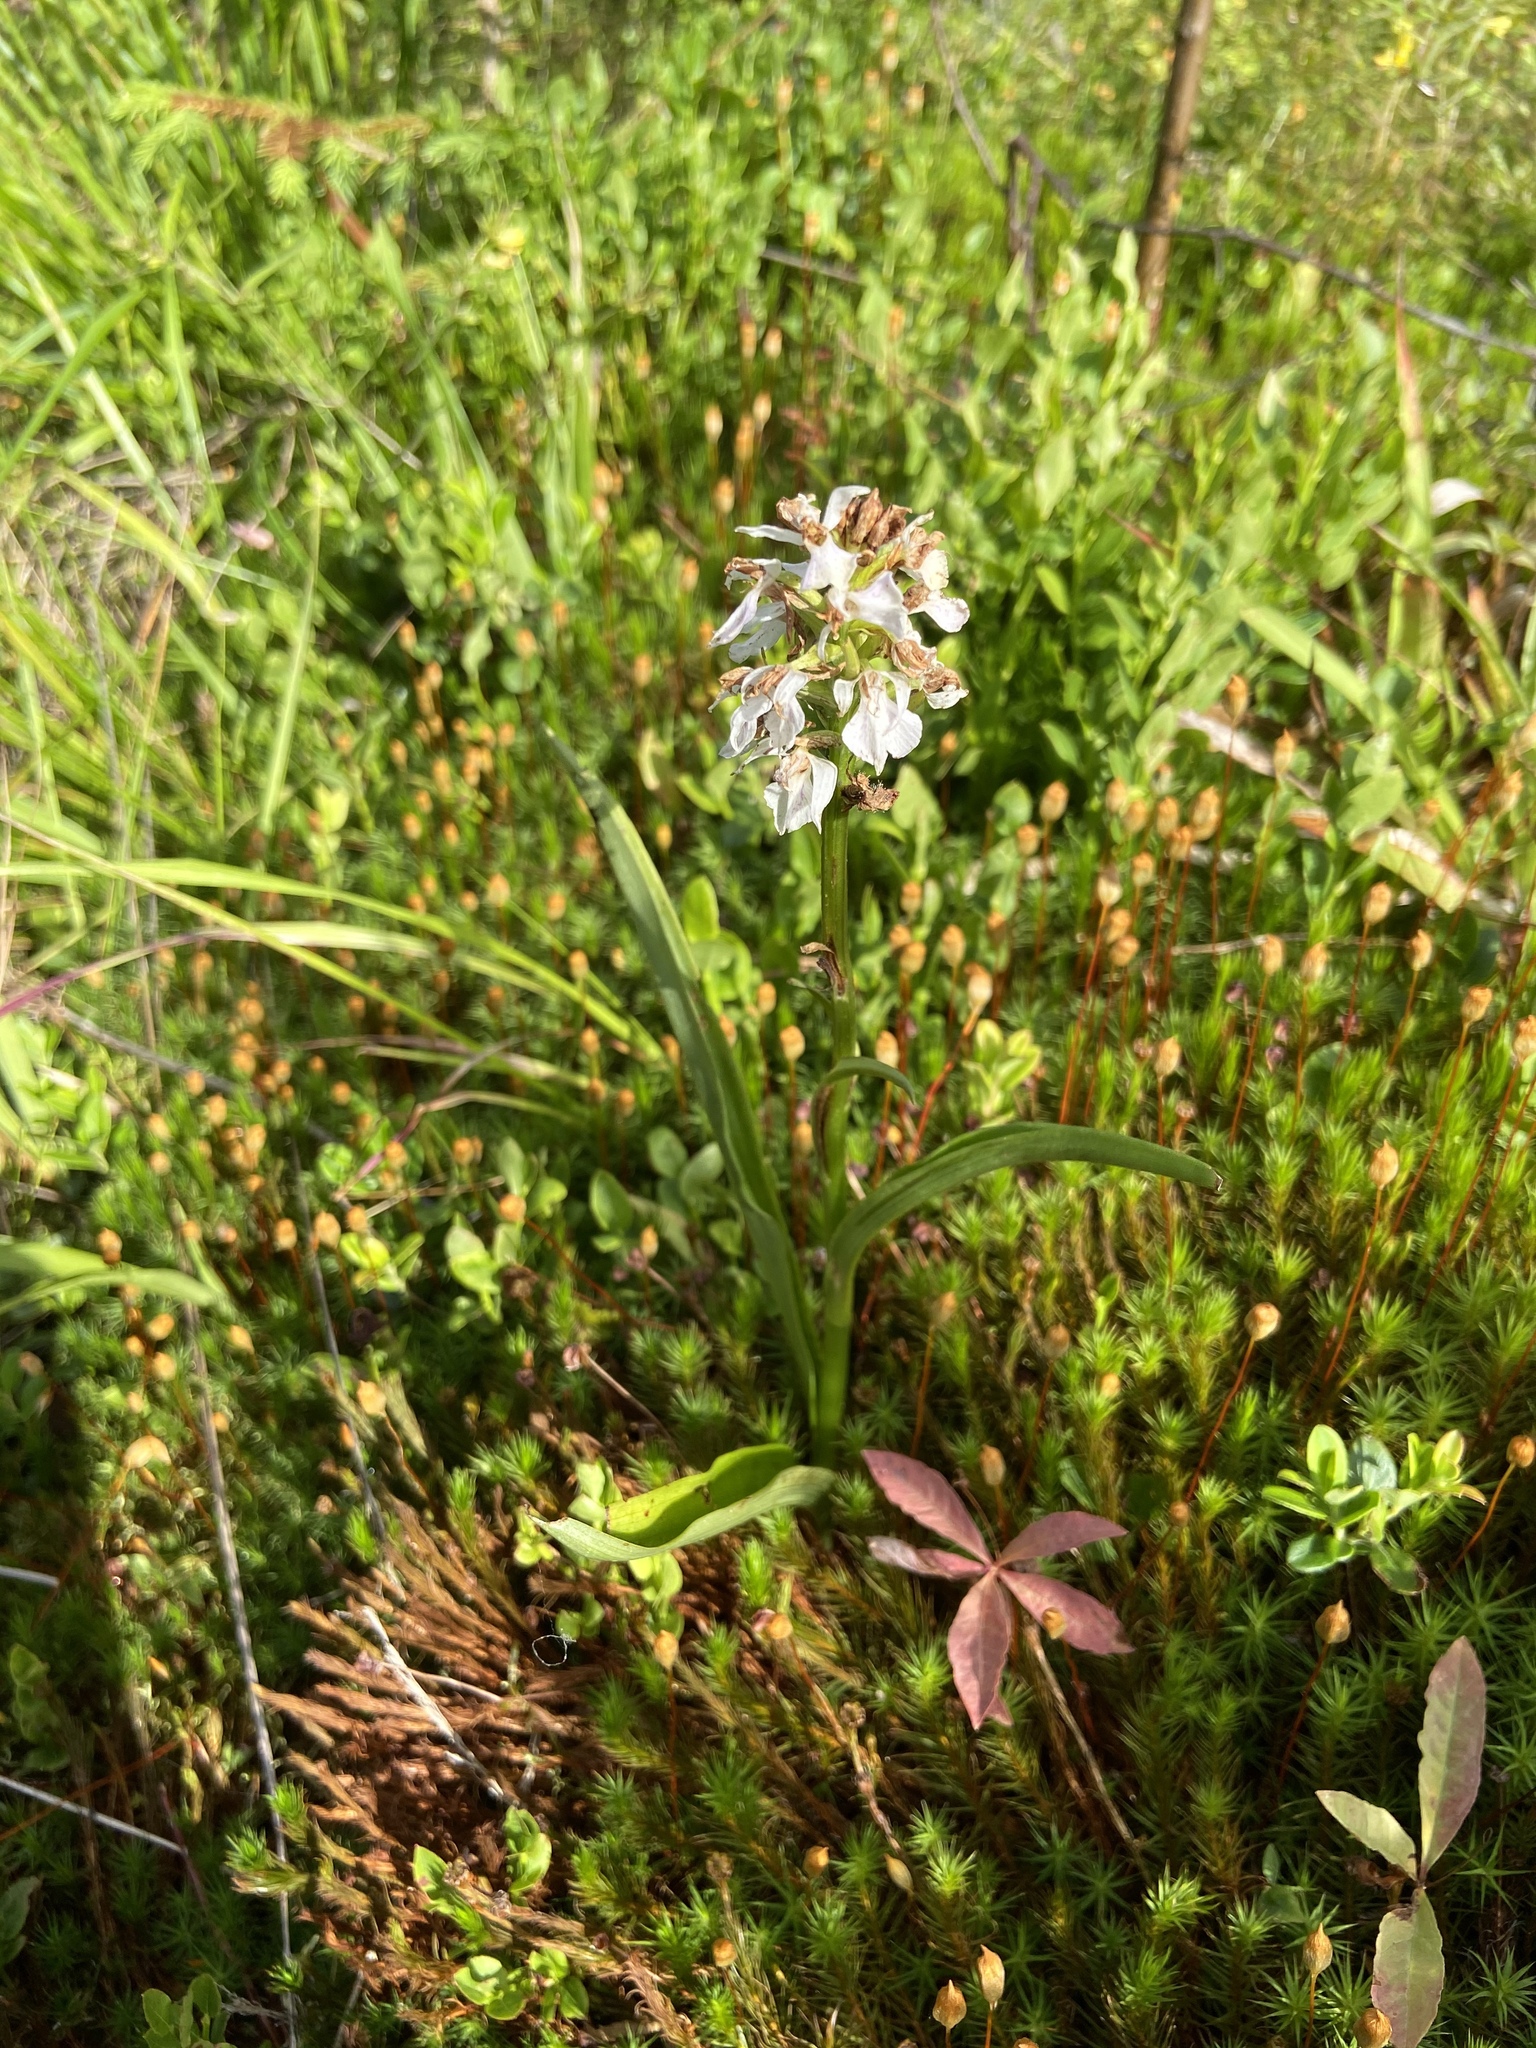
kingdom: Plantae
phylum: Tracheophyta
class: Liliopsida
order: Asparagales
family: Orchidaceae
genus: Dactylorhiza
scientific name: Dactylorhiza maculata
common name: Heath spotted-orchid
